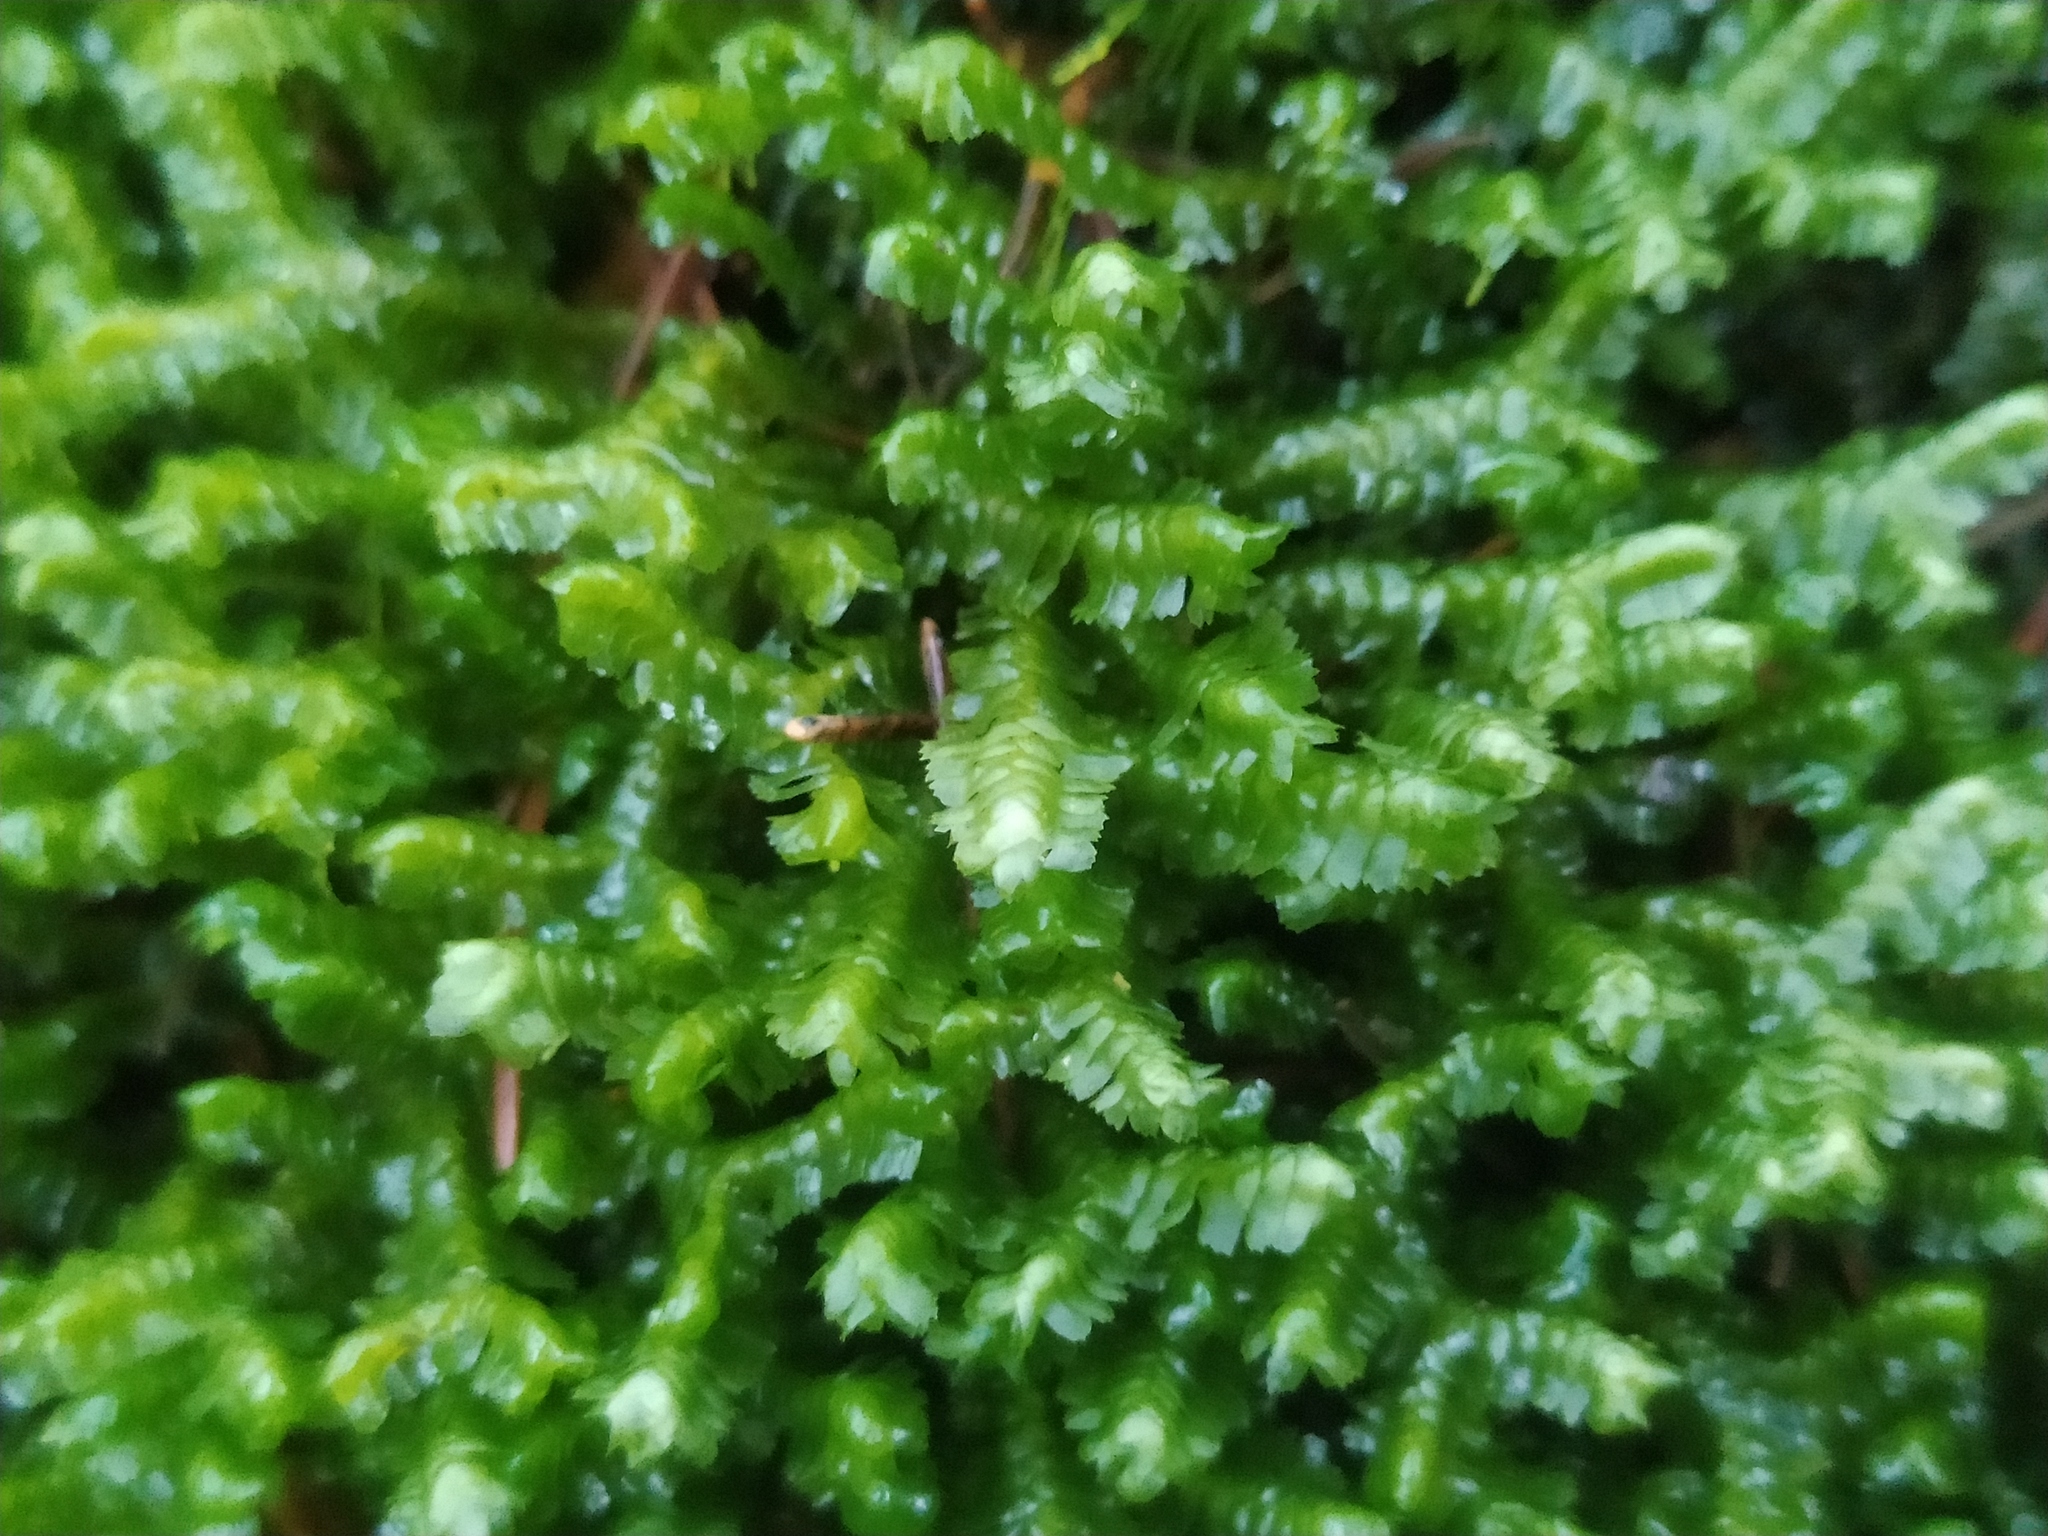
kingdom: Plantae
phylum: Marchantiophyta
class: Jungermanniopsida
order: Jungermanniales
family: Lepidoziaceae
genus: Bazzania
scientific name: Bazzania trilobata
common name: Three-lobed whipwort
